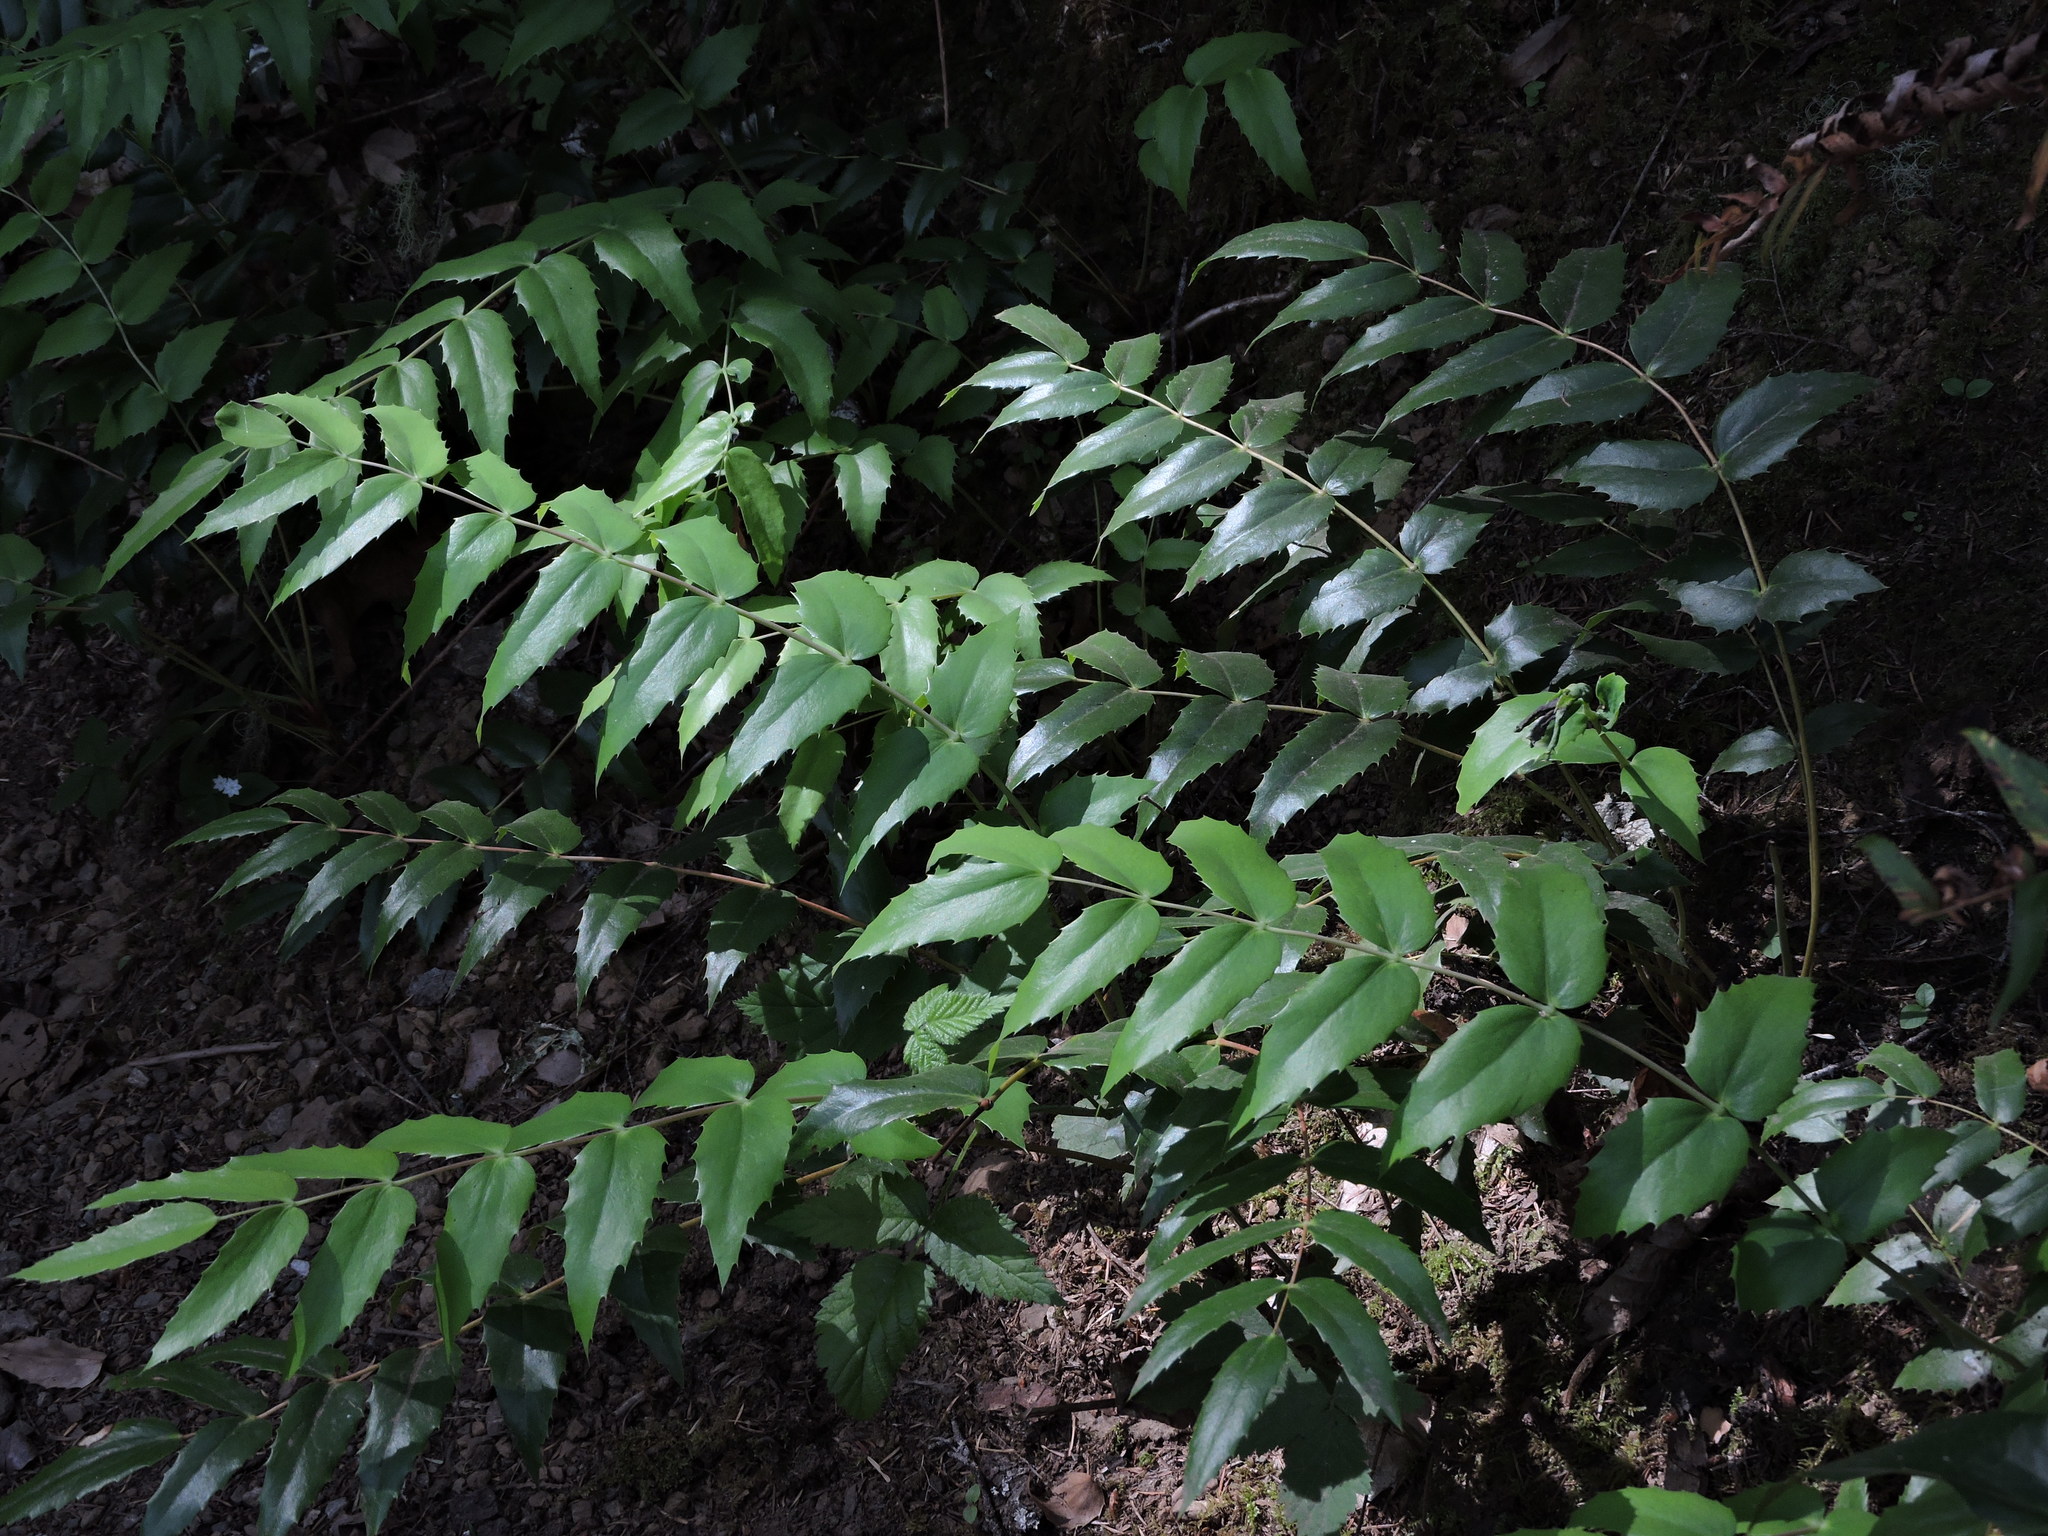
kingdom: Plantae
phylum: Tracheophyta
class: Magnoliopsida
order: Ranunculales
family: Berberidaceae
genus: Mahonia
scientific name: Mahonia nervosa
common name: Cascade oregon-grape
